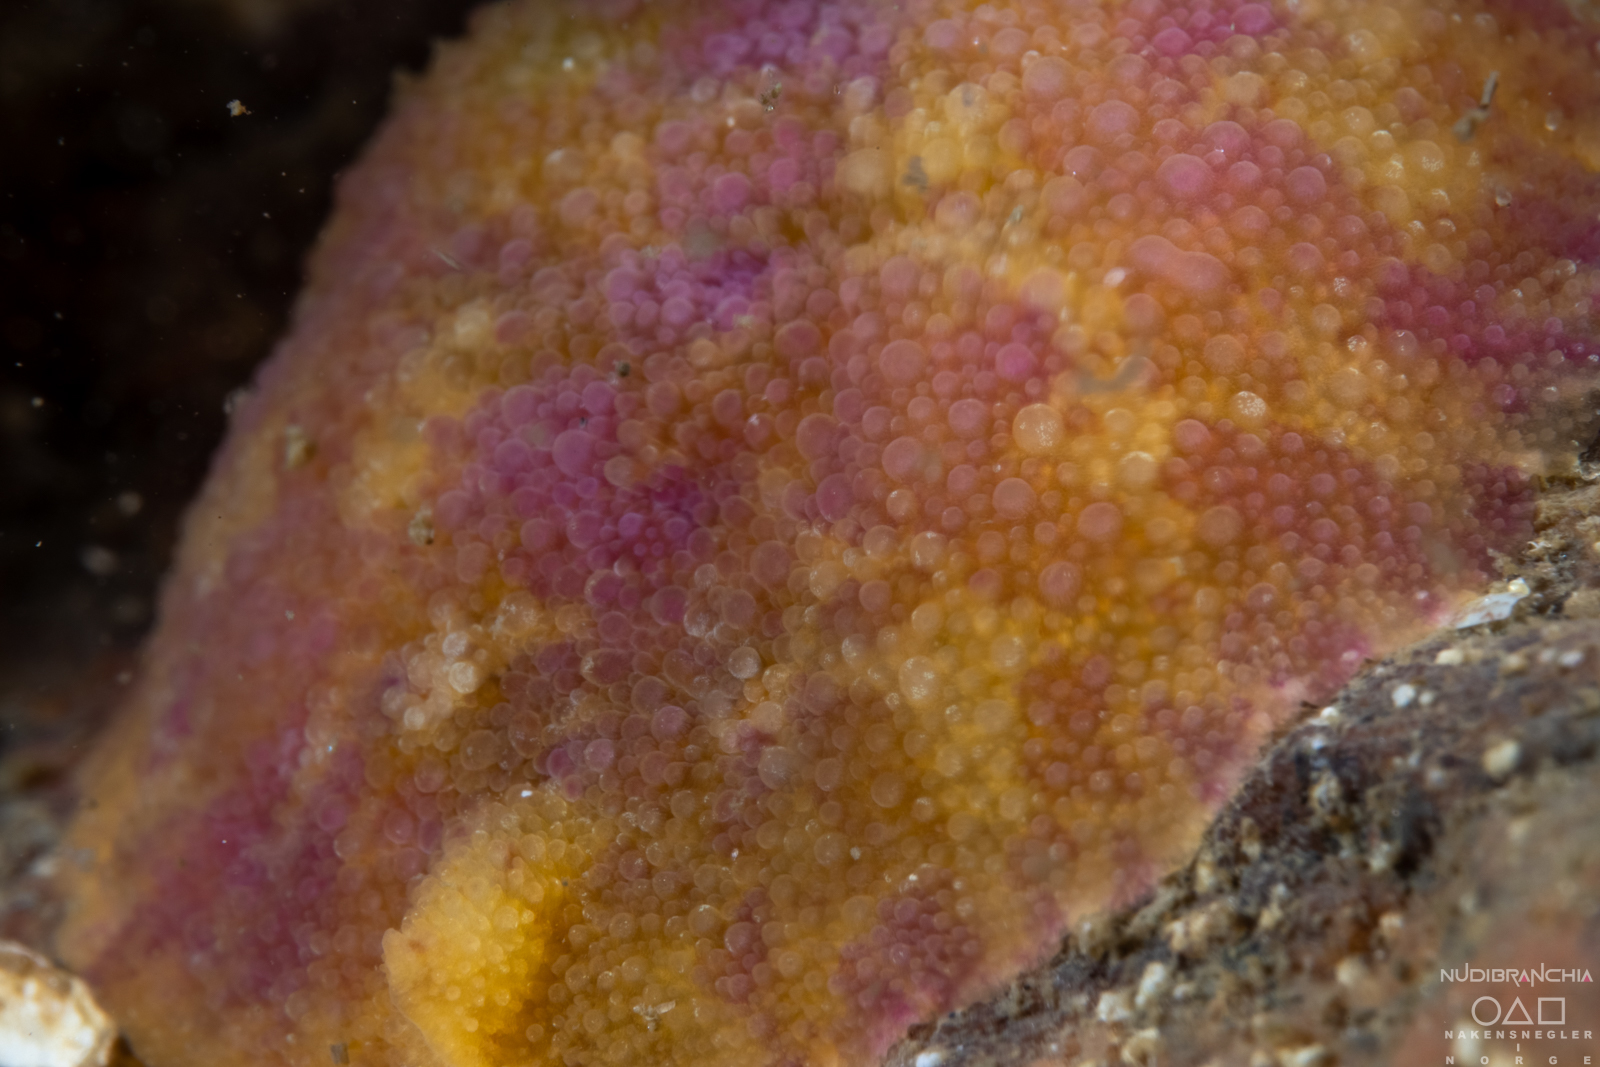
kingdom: Animalia
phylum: Mollusca
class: Gastropoda
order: Nudibranchia
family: Dorididae
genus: Doris
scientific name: Doris pseudoargus
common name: Sea lemon
